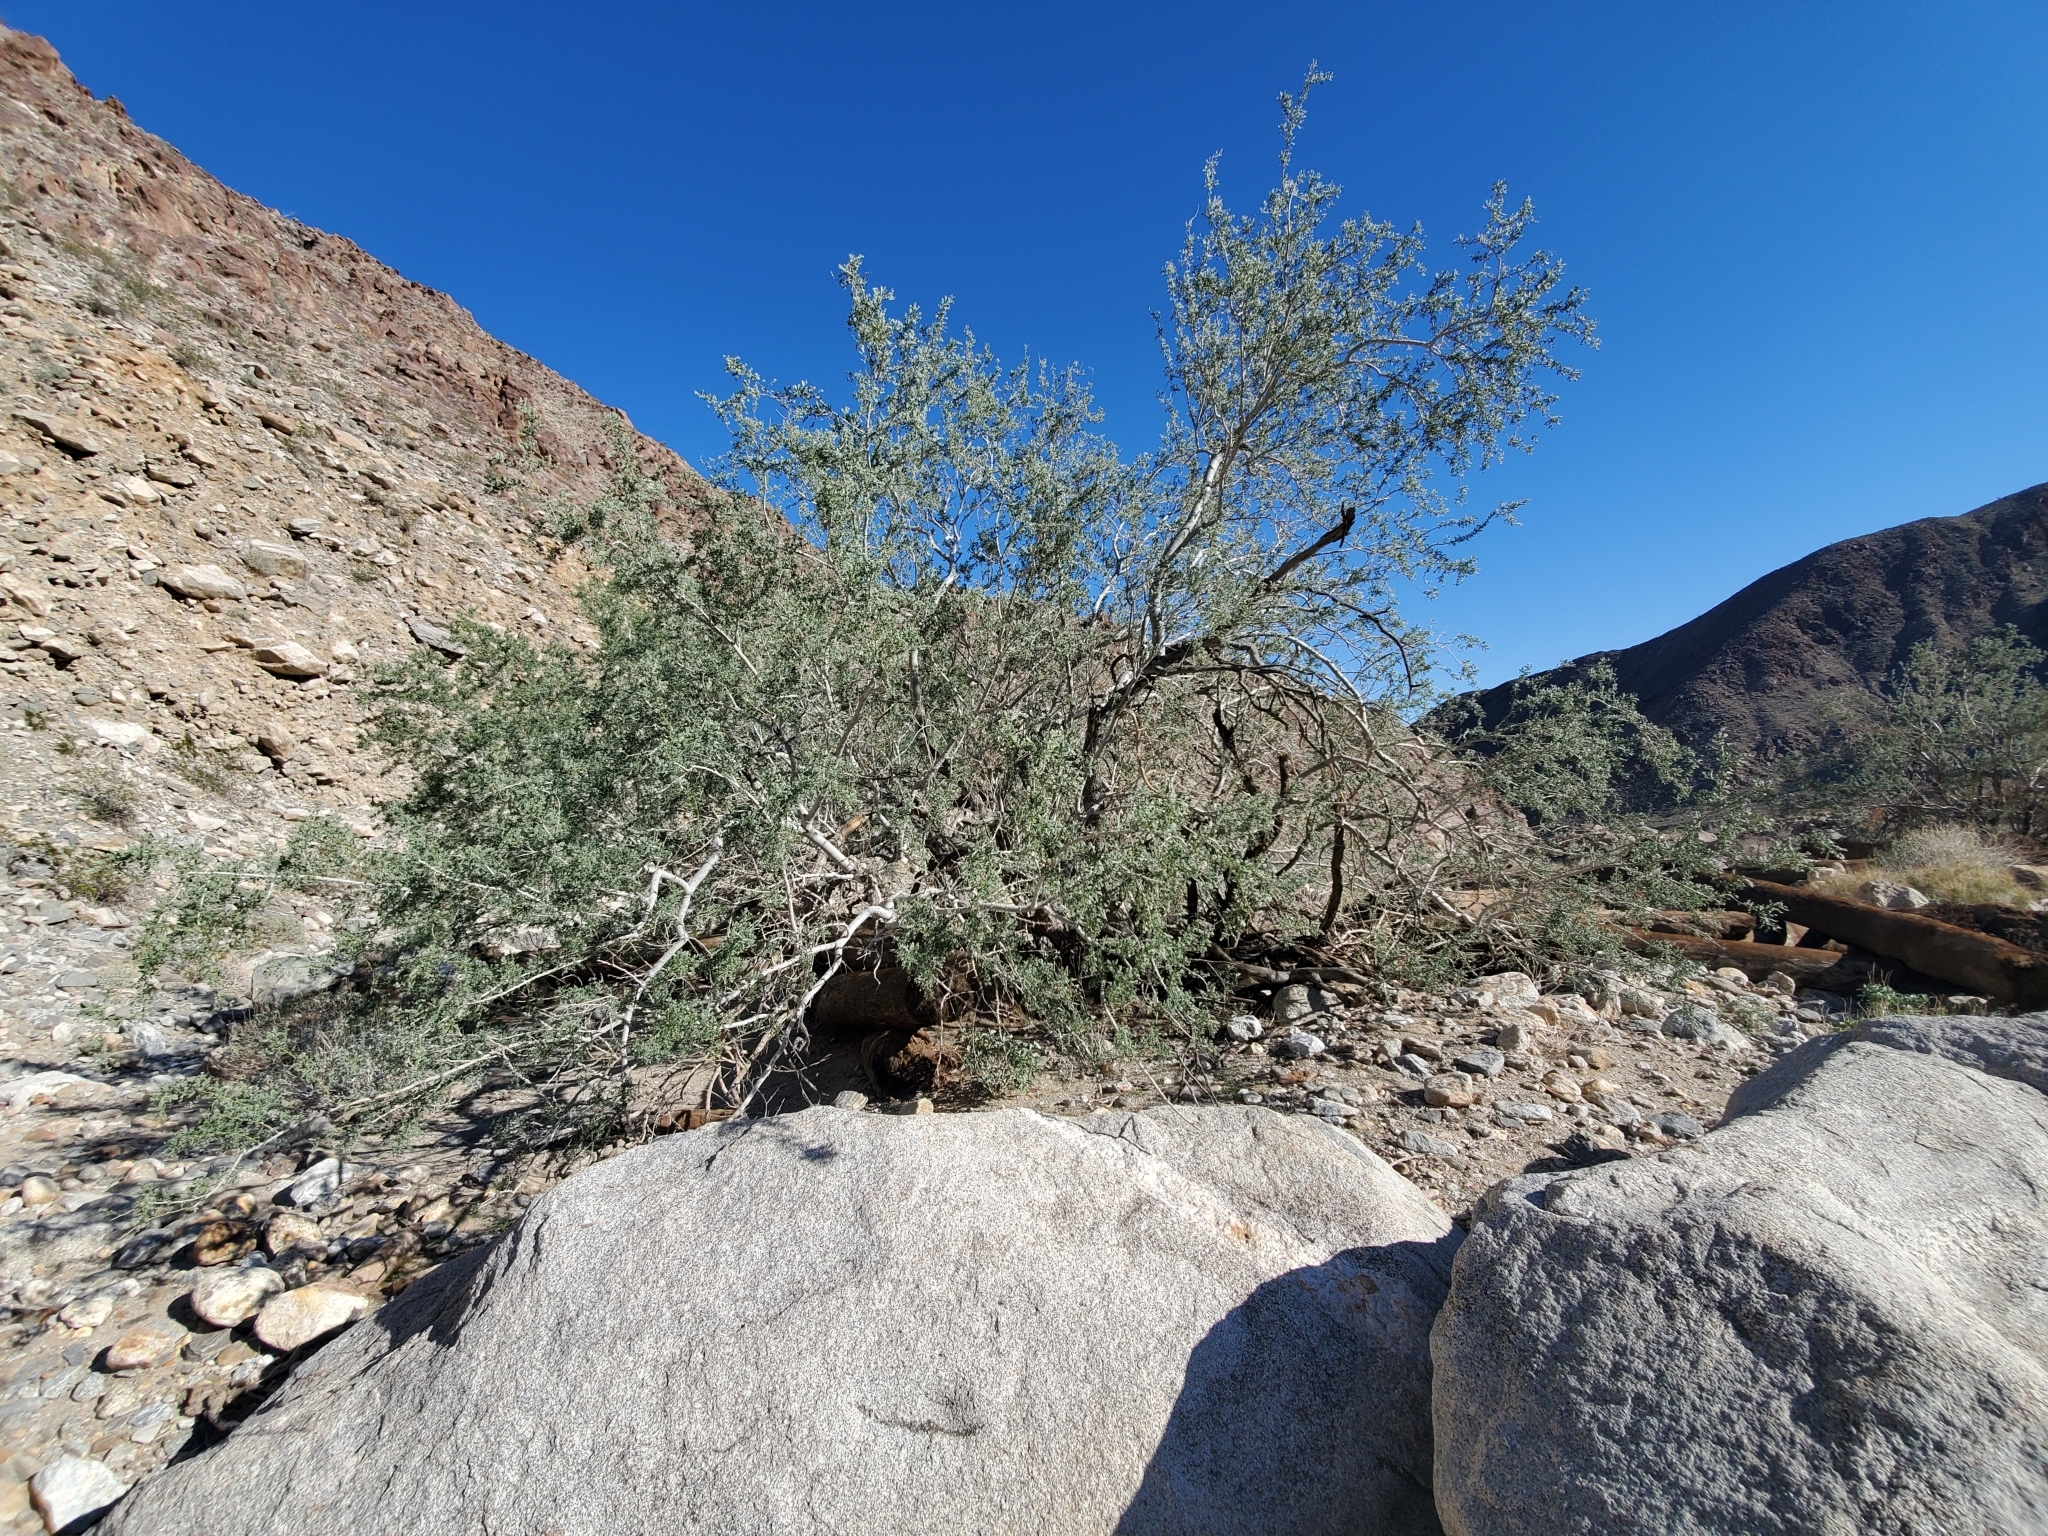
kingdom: Plantae
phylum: Tracheophyta
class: Magnoliopsida
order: Fabales
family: Fabaceae
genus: Olneya
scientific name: Olneya tesota
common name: Desert ironwood
